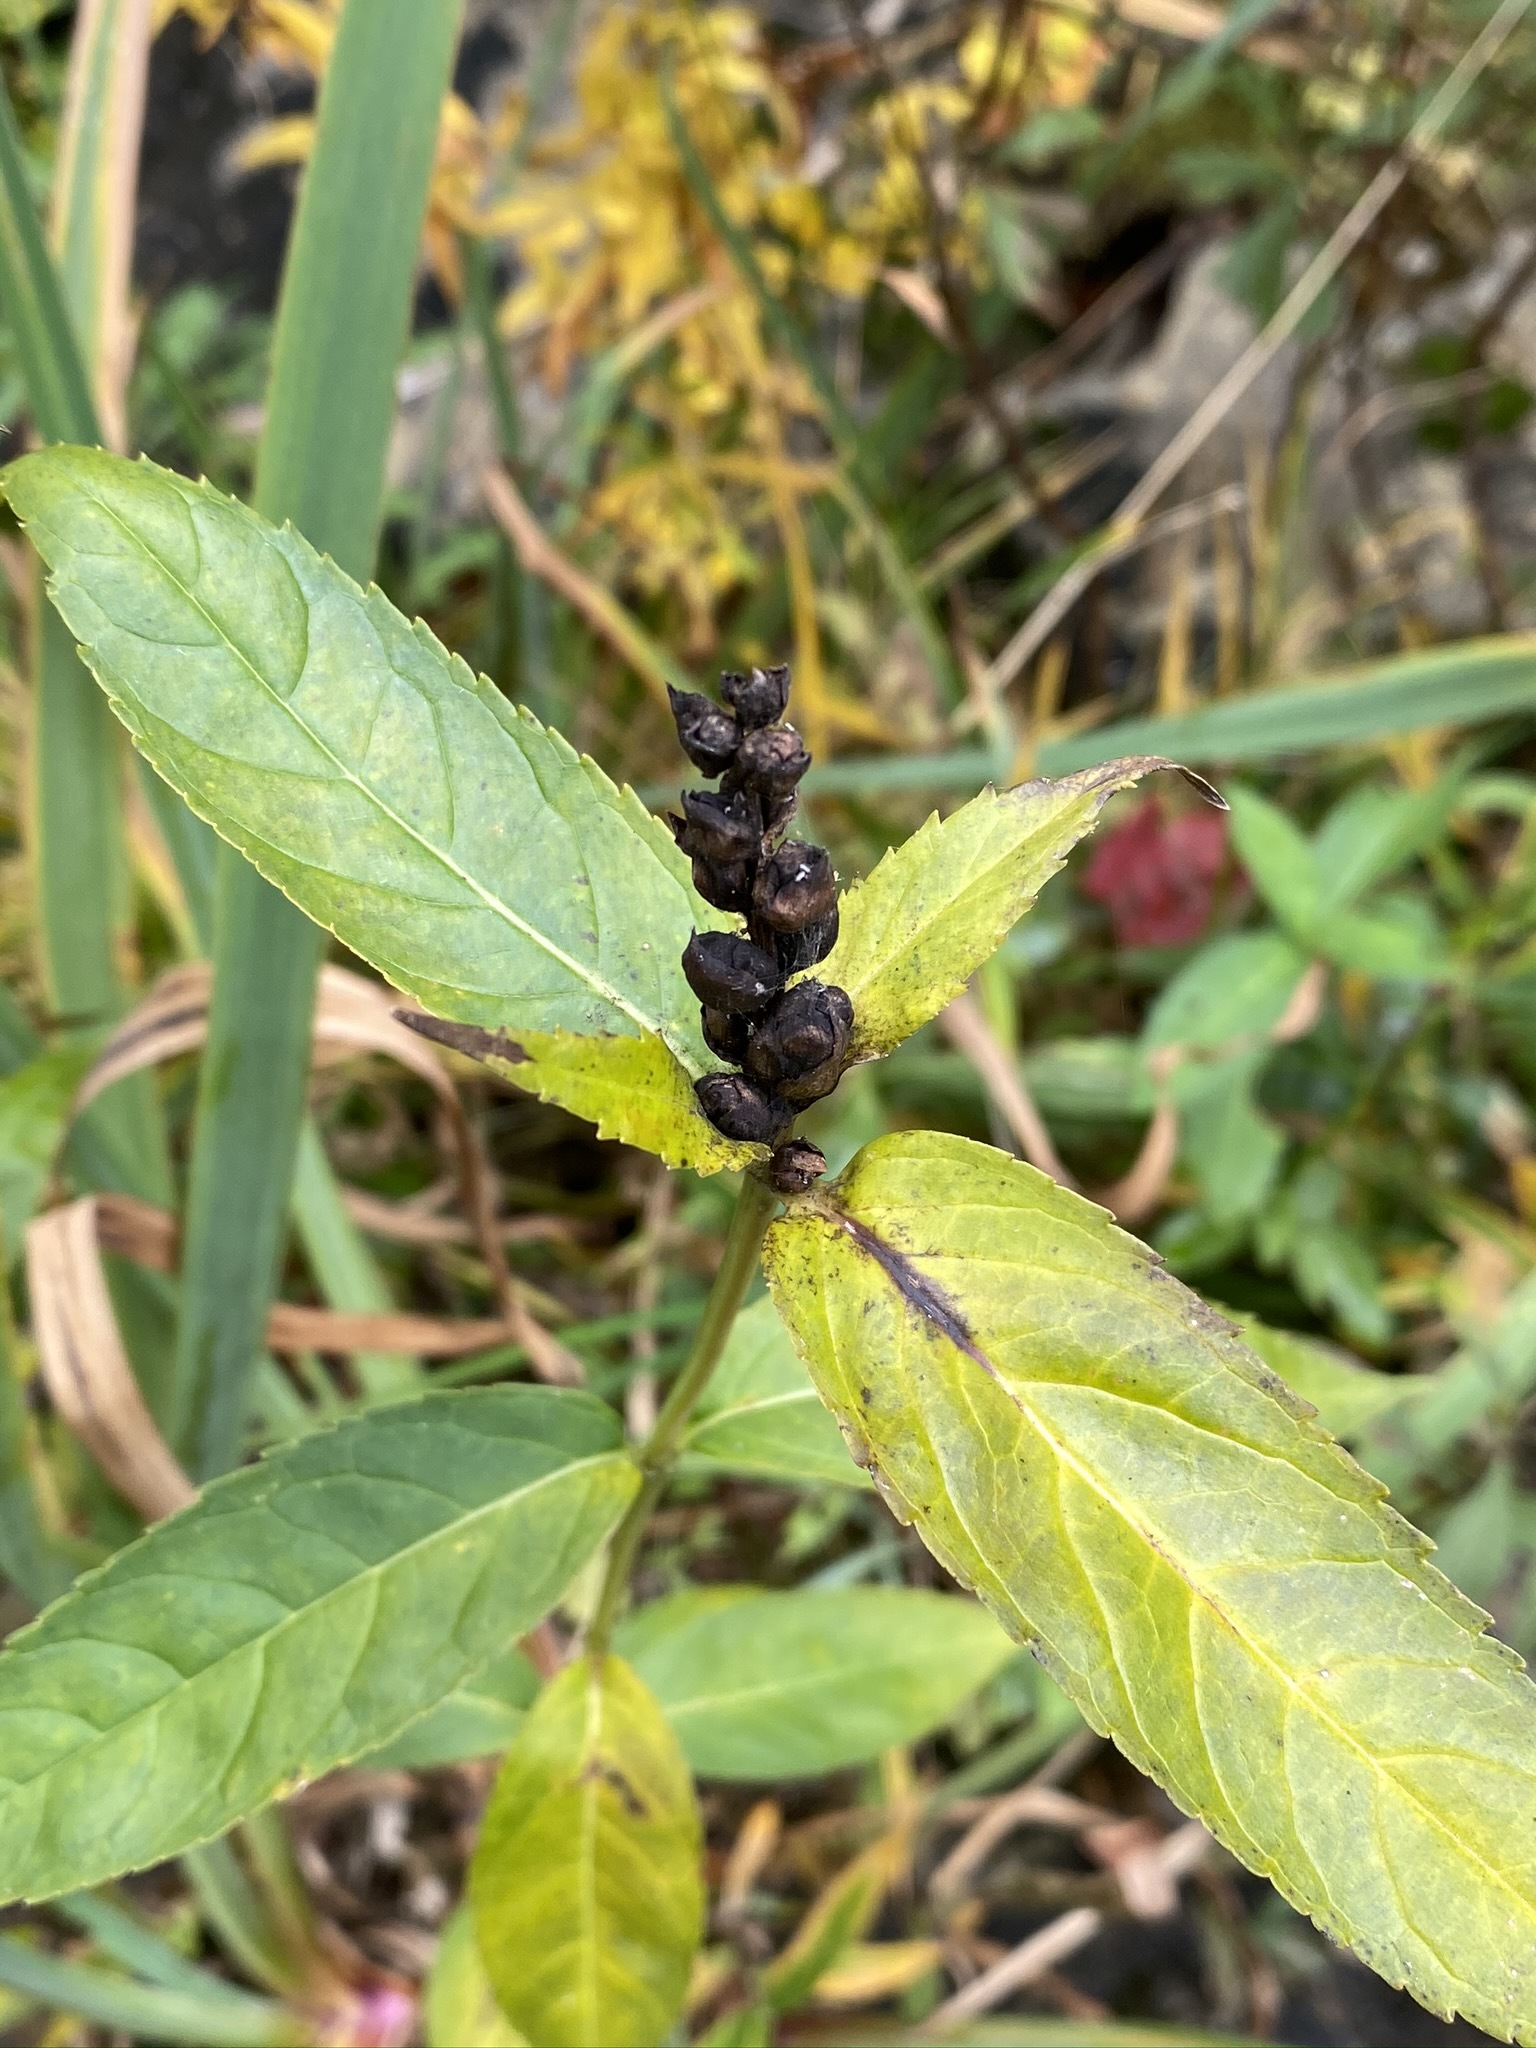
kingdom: Plantae
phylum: Tracheophyta
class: Magnoliopsida
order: Lamiales
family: Plantaginaceae
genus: Chelone
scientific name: Chelone glabra
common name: Snakehead
